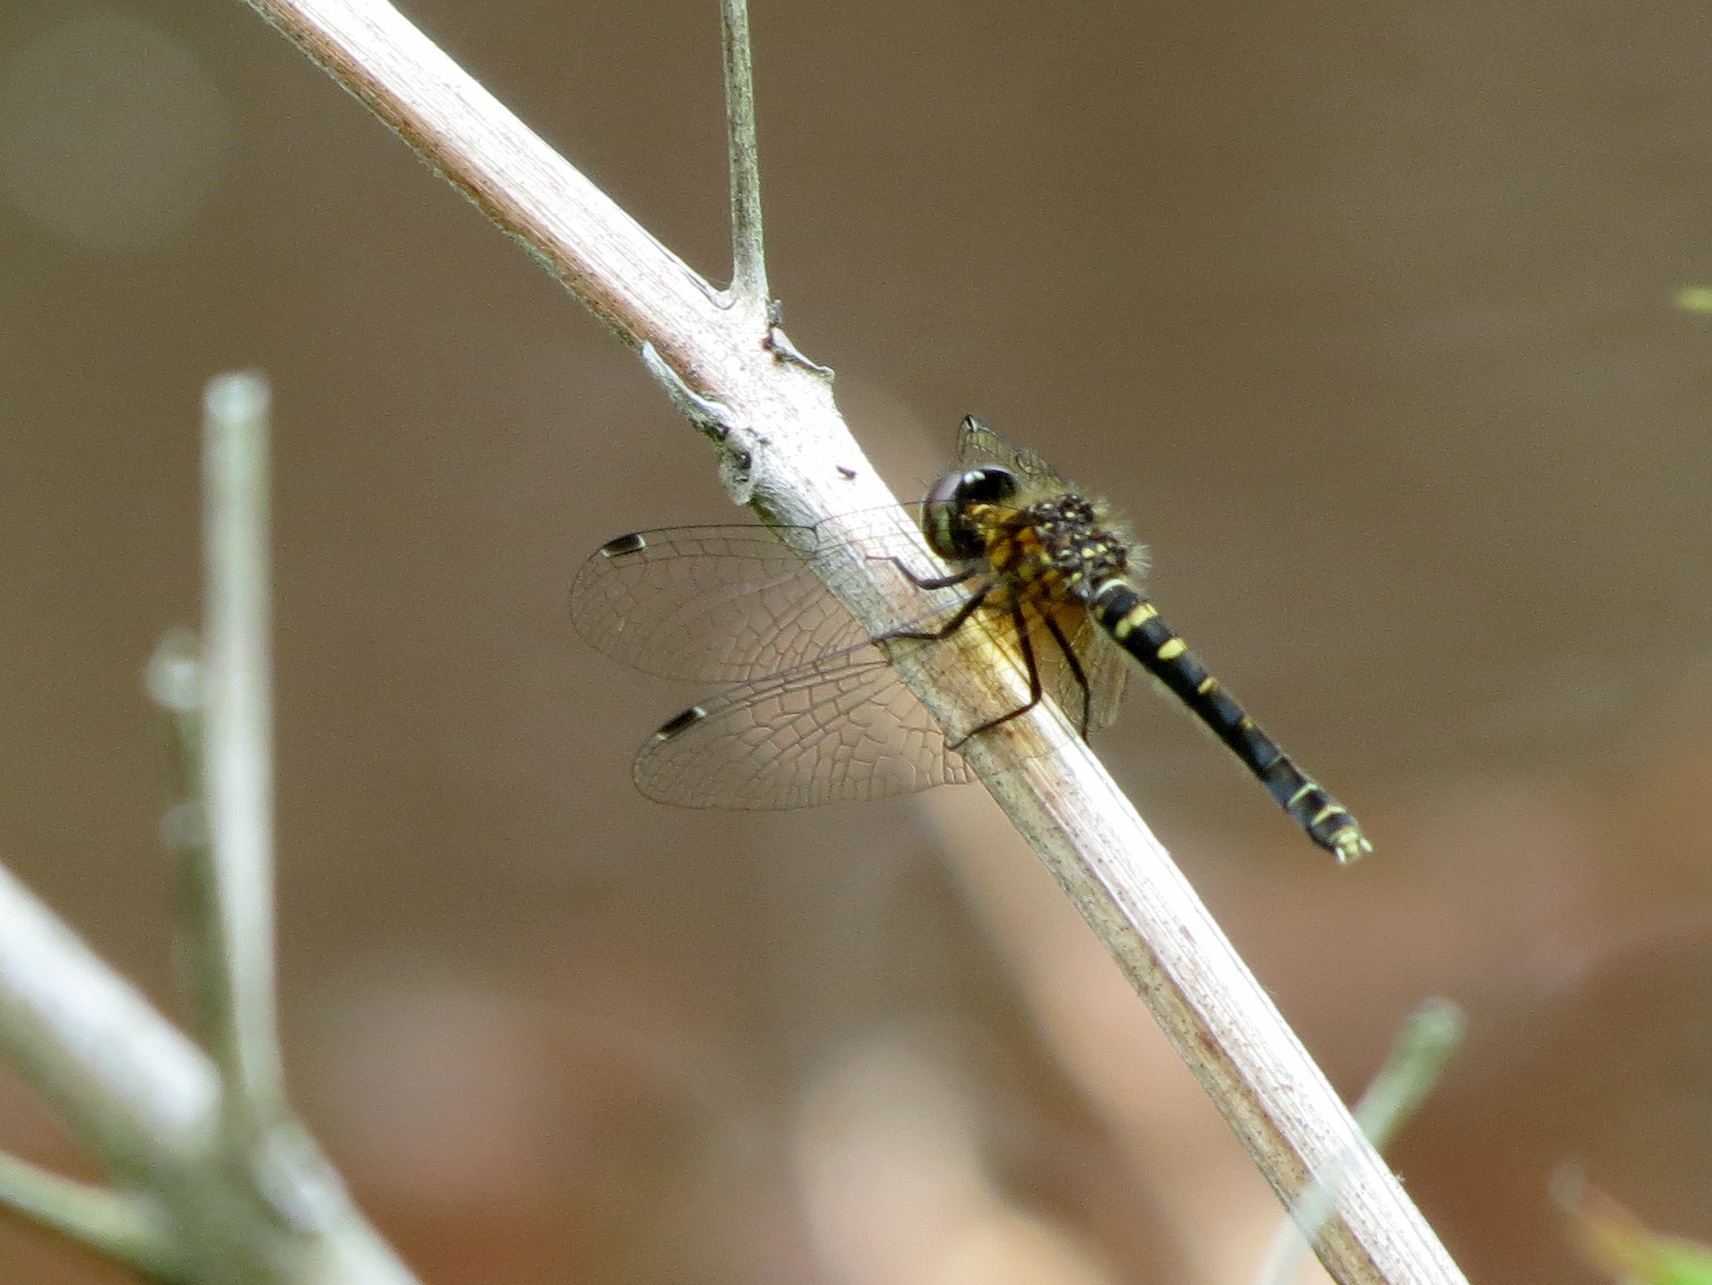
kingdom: Animalia
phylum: Arthropoda
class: Insecta
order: Odonata
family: Libellulidae
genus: Nannothemis
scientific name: Nannothemis bella
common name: Elfin skimmer
